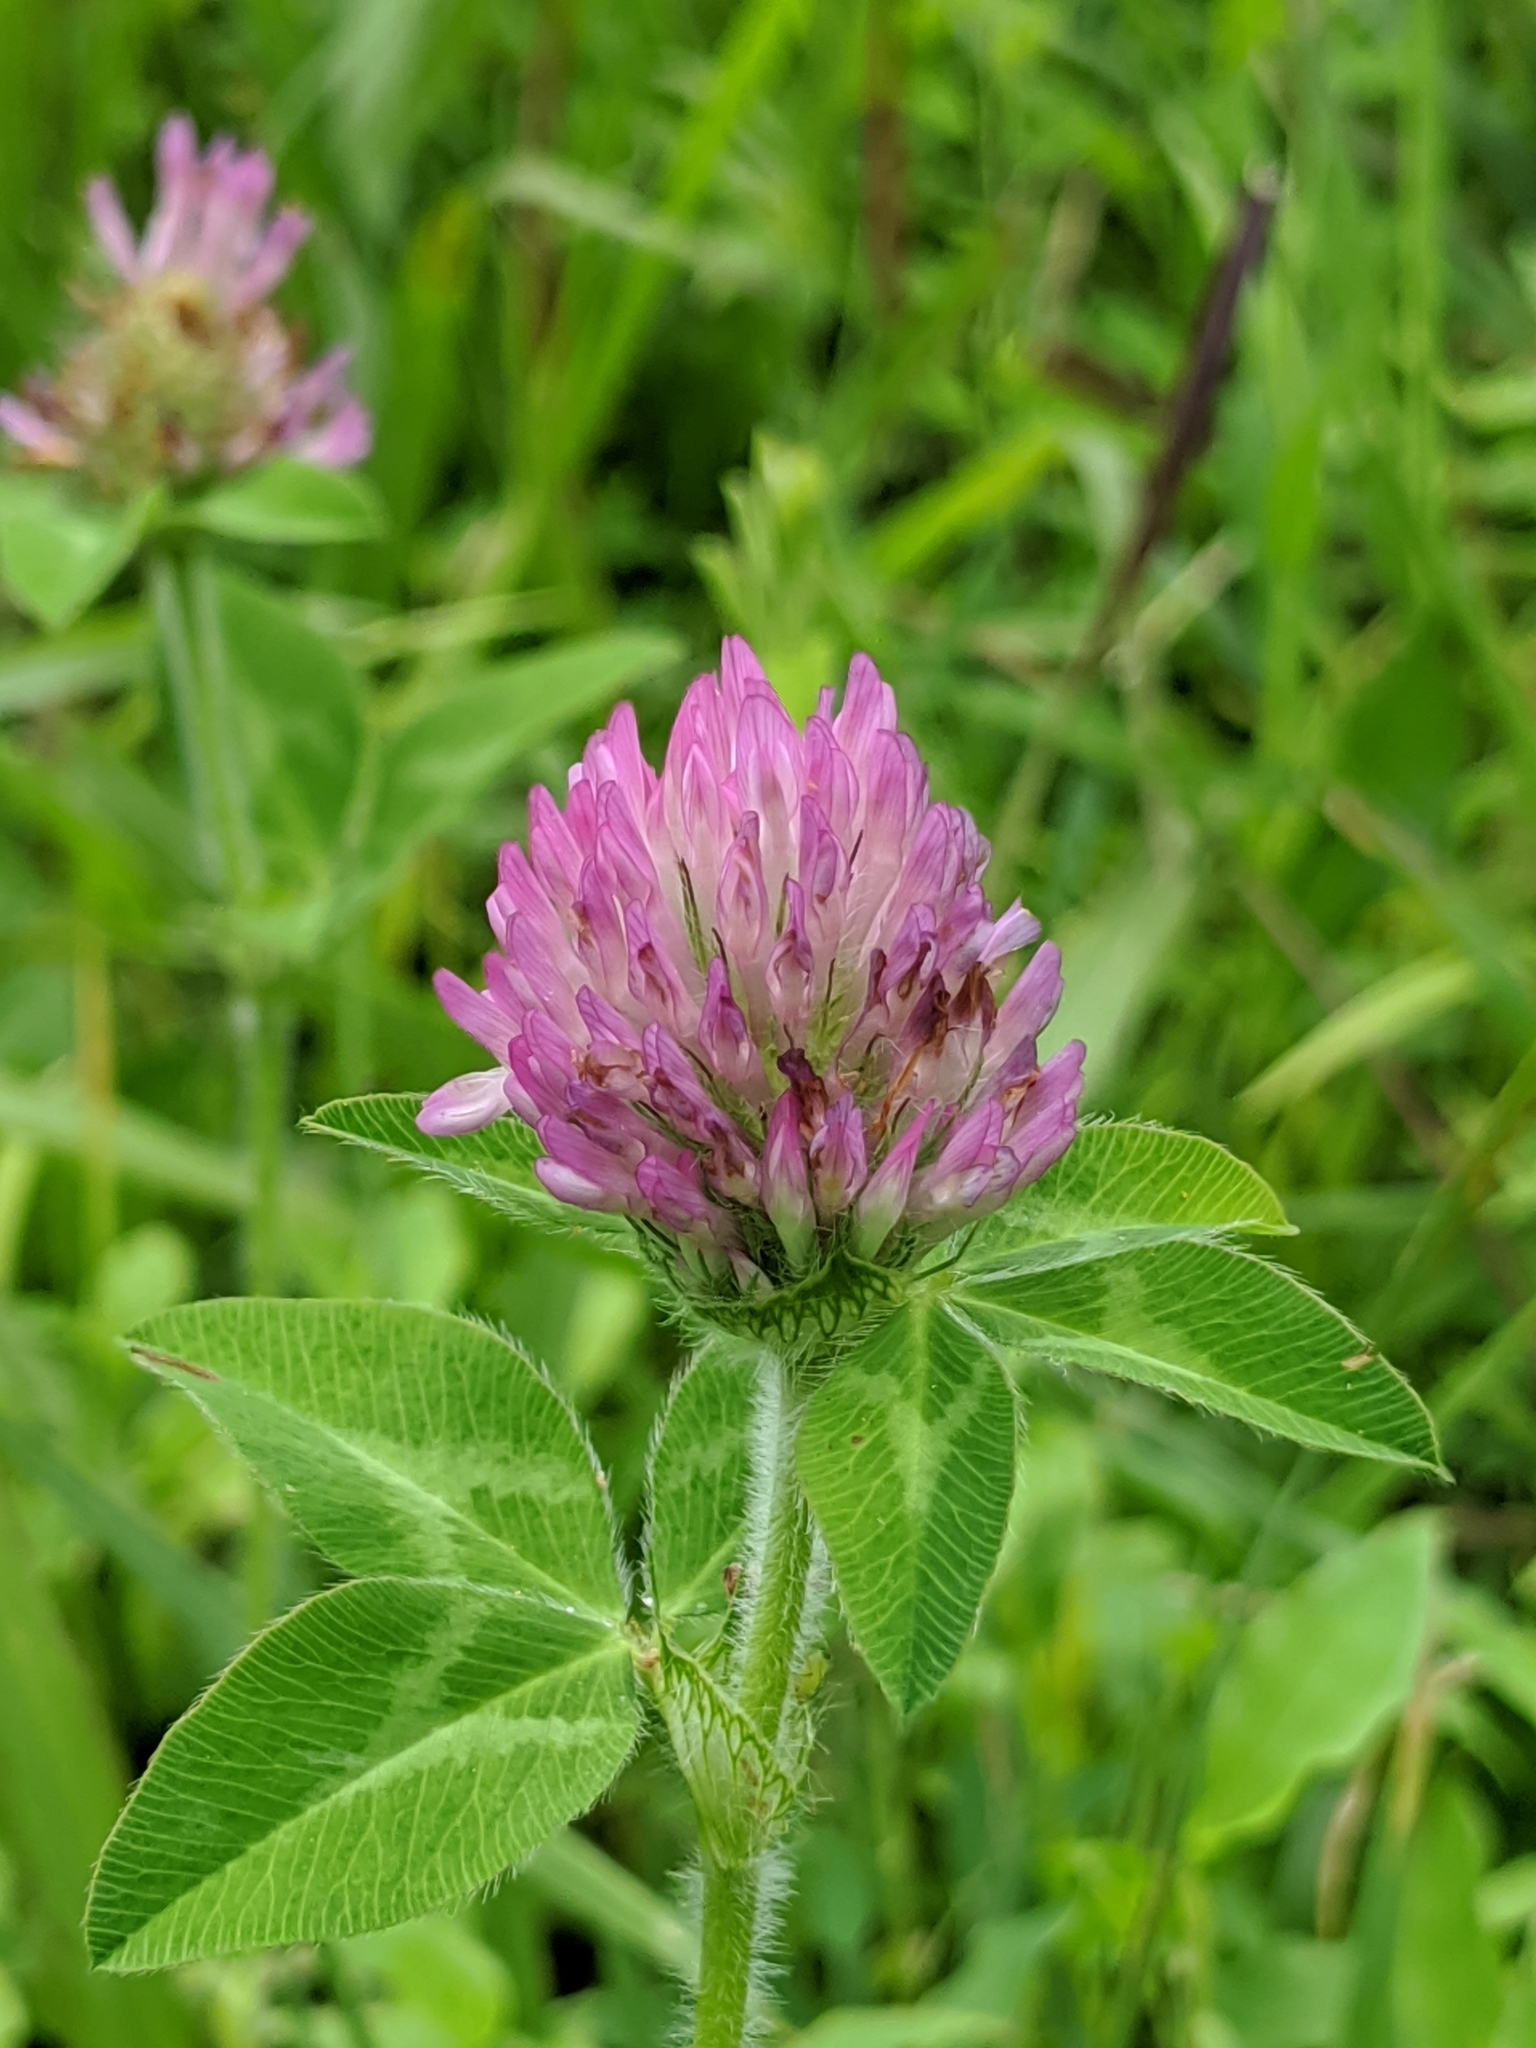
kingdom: Plantae
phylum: Tracheophyta
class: Magnoliopsida
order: Fabales
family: Fabaceae
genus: Trifolium
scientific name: Trifolium pratense
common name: Red clover
